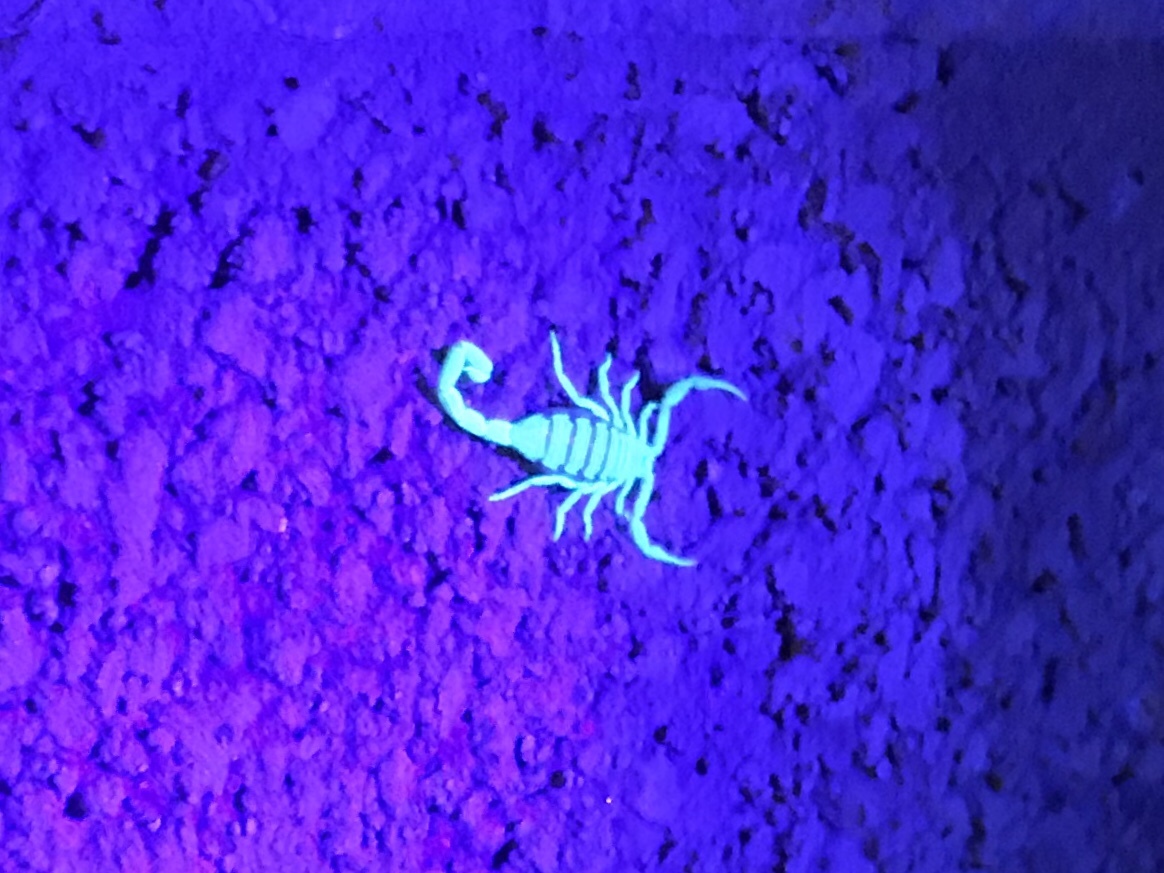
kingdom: Animalia
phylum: Arthropoda
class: Arachnida
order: Scorpiones
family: Buthidae
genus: Centruroides
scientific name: Centruroides sculpturatus
